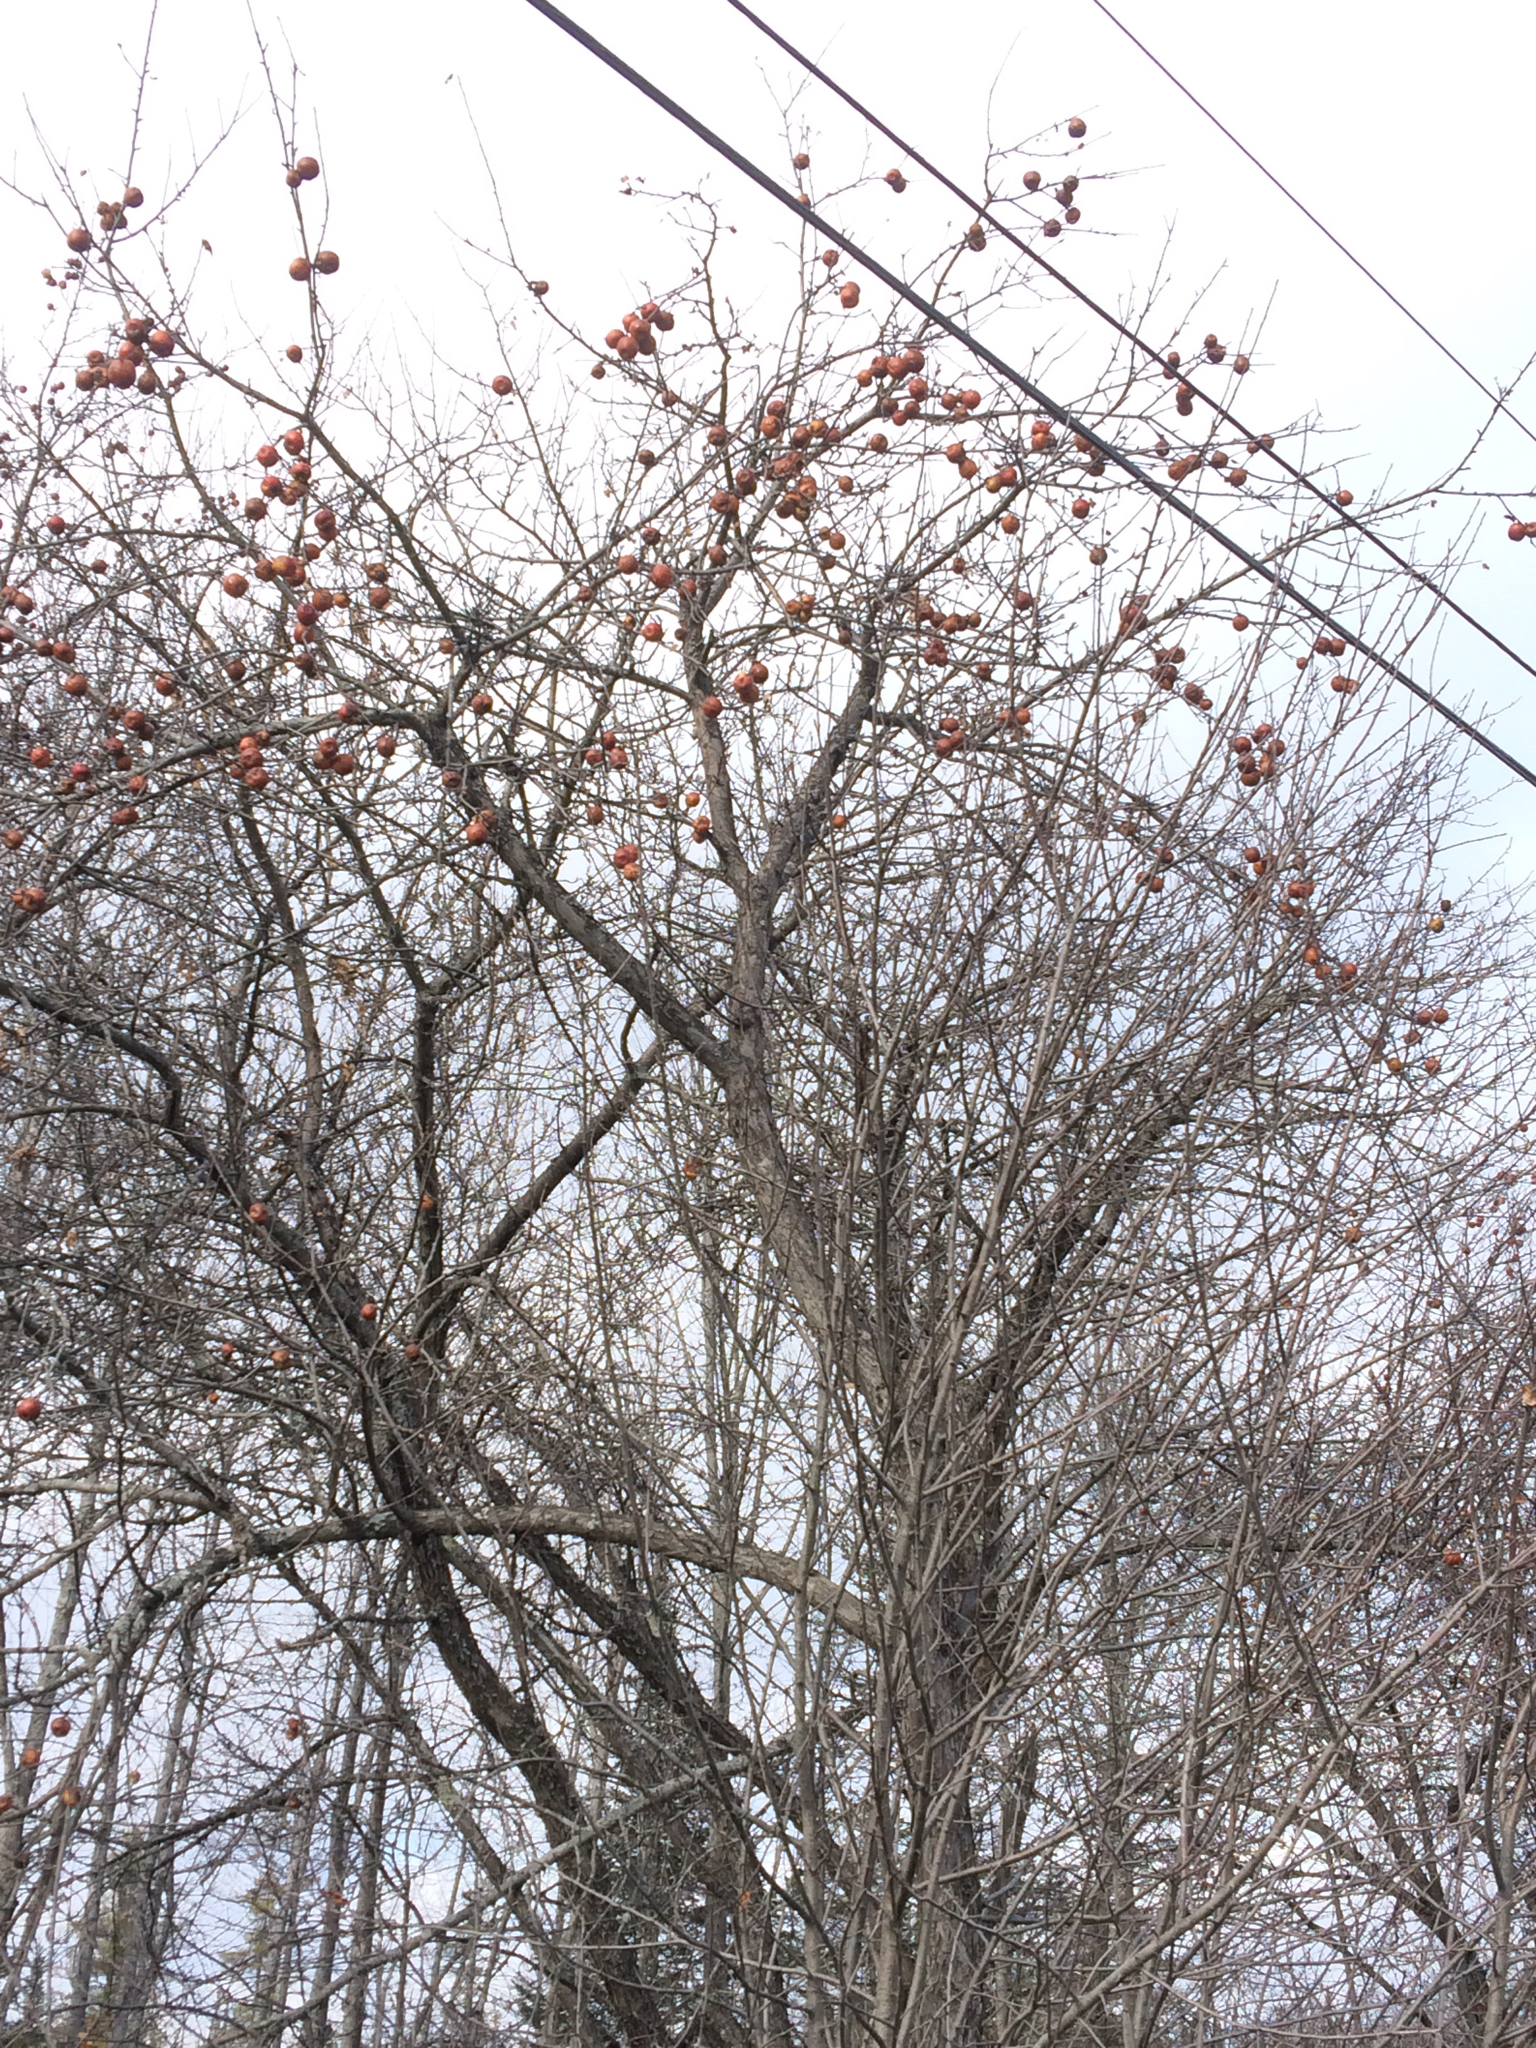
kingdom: Plantae
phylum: Tracheophyta
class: Magnoliopsida
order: Rosales
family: Rosaceae
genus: Malus
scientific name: Malus domestica
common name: Apple
